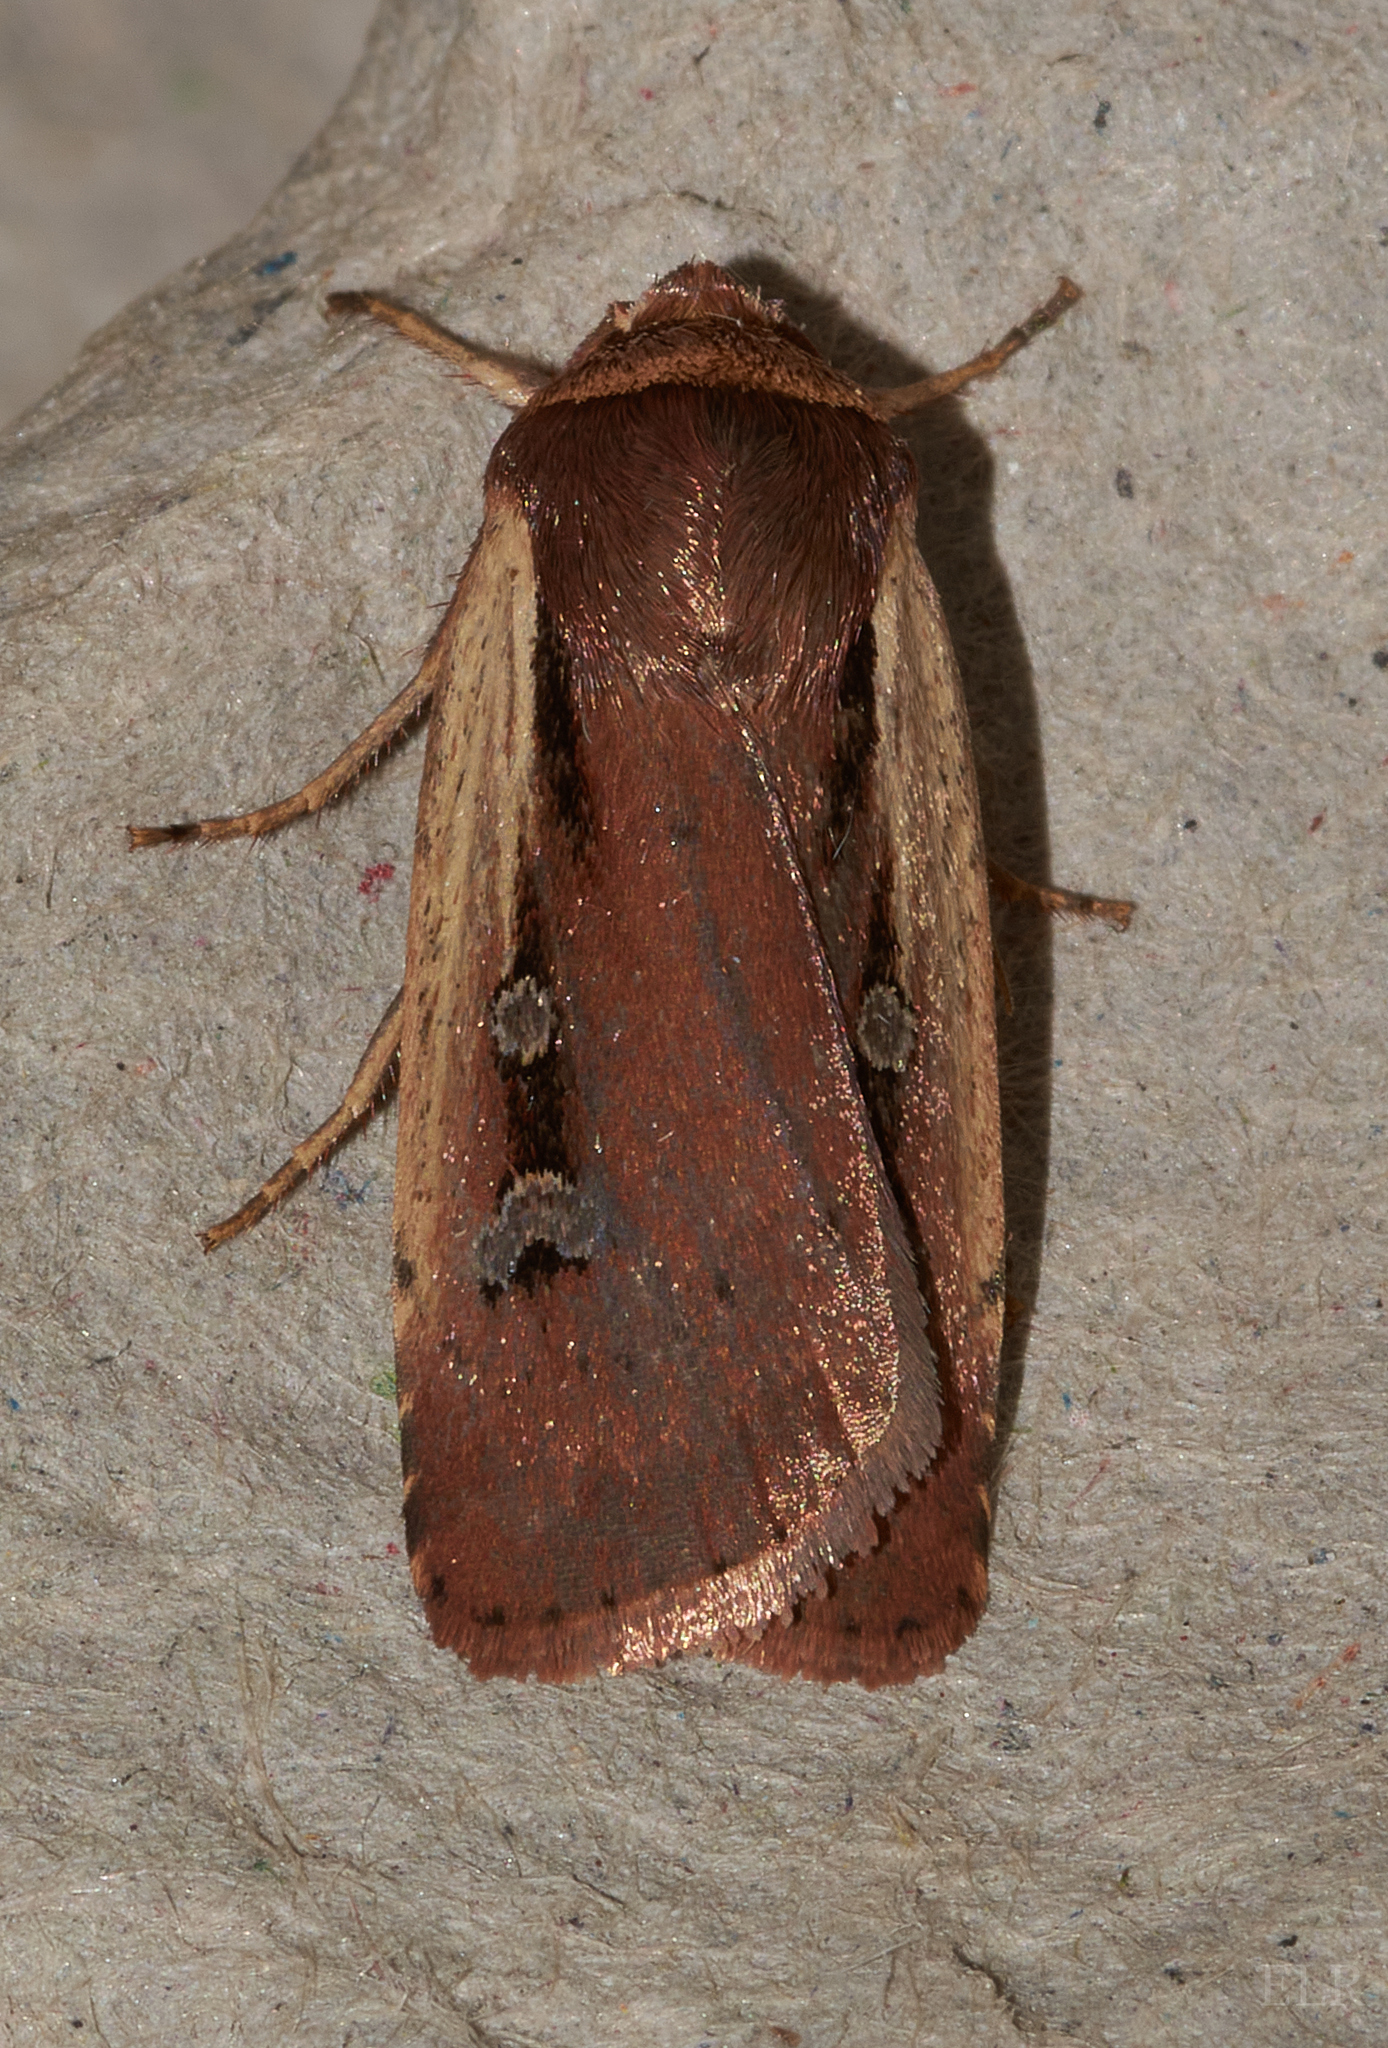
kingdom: Animalia
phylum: Arthropoda
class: Insecta
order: Lepidoptera
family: Noctuidae
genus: Ochropleura
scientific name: Ochropleura implecta
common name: Flame-shouldered dart
